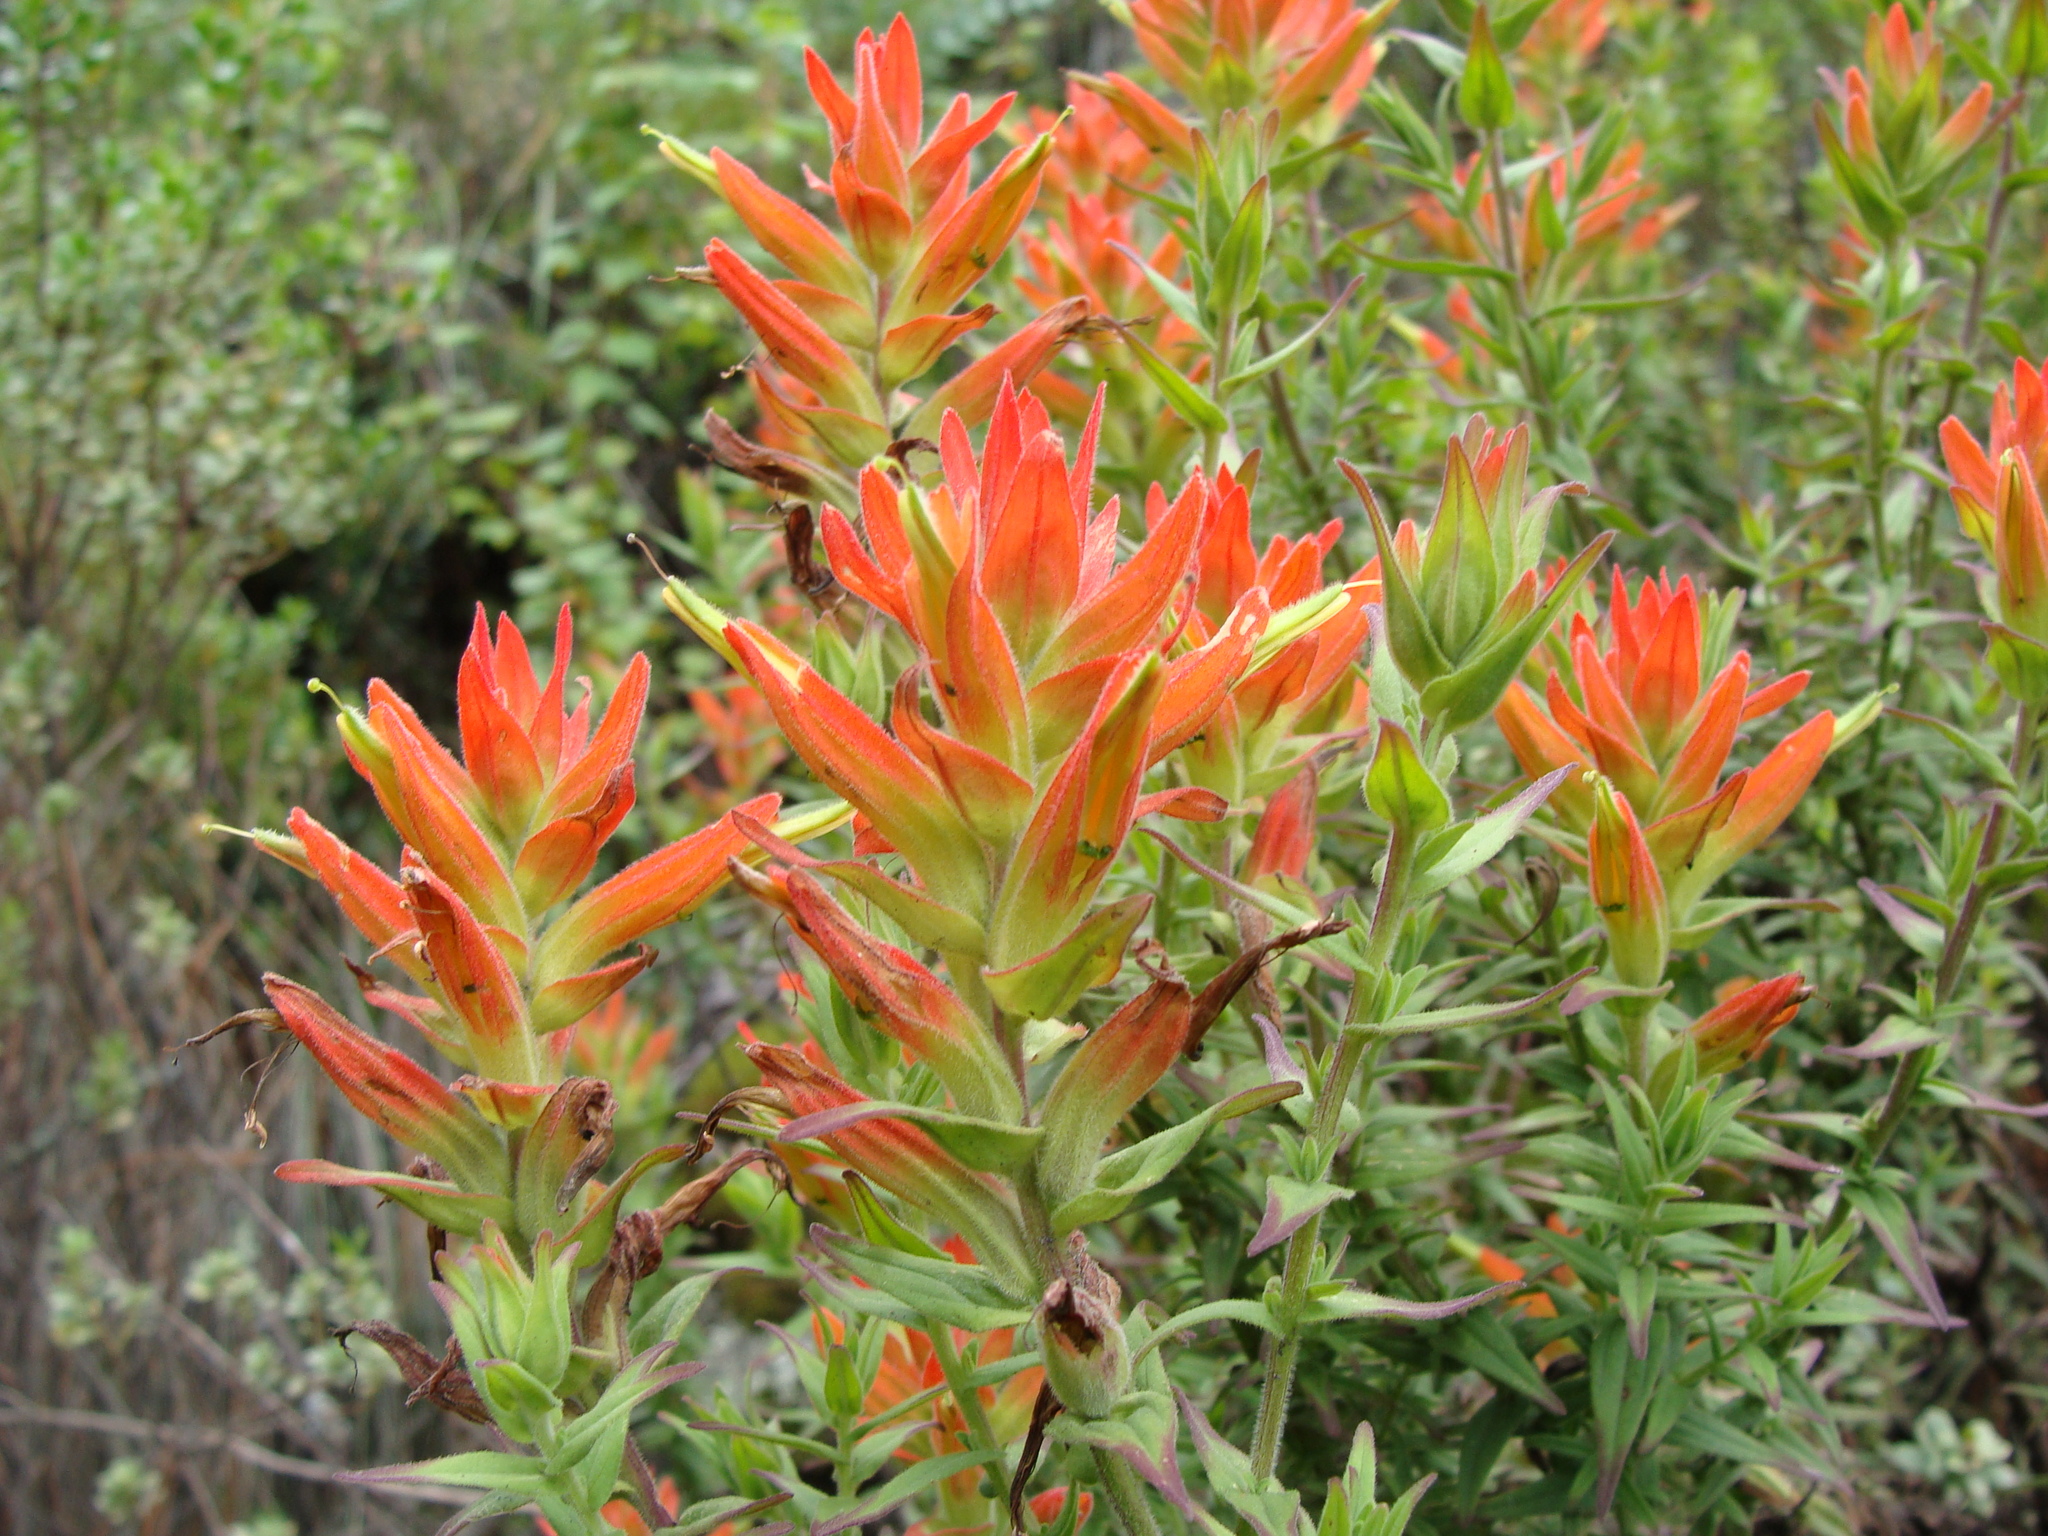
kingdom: Plantae
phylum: Tracheophyta
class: Magnoliopsida
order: Lamiales
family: Orobanchaceae
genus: Castilleja
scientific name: Castilleja tenuiflora
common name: Santa catalina indian paintbrush
